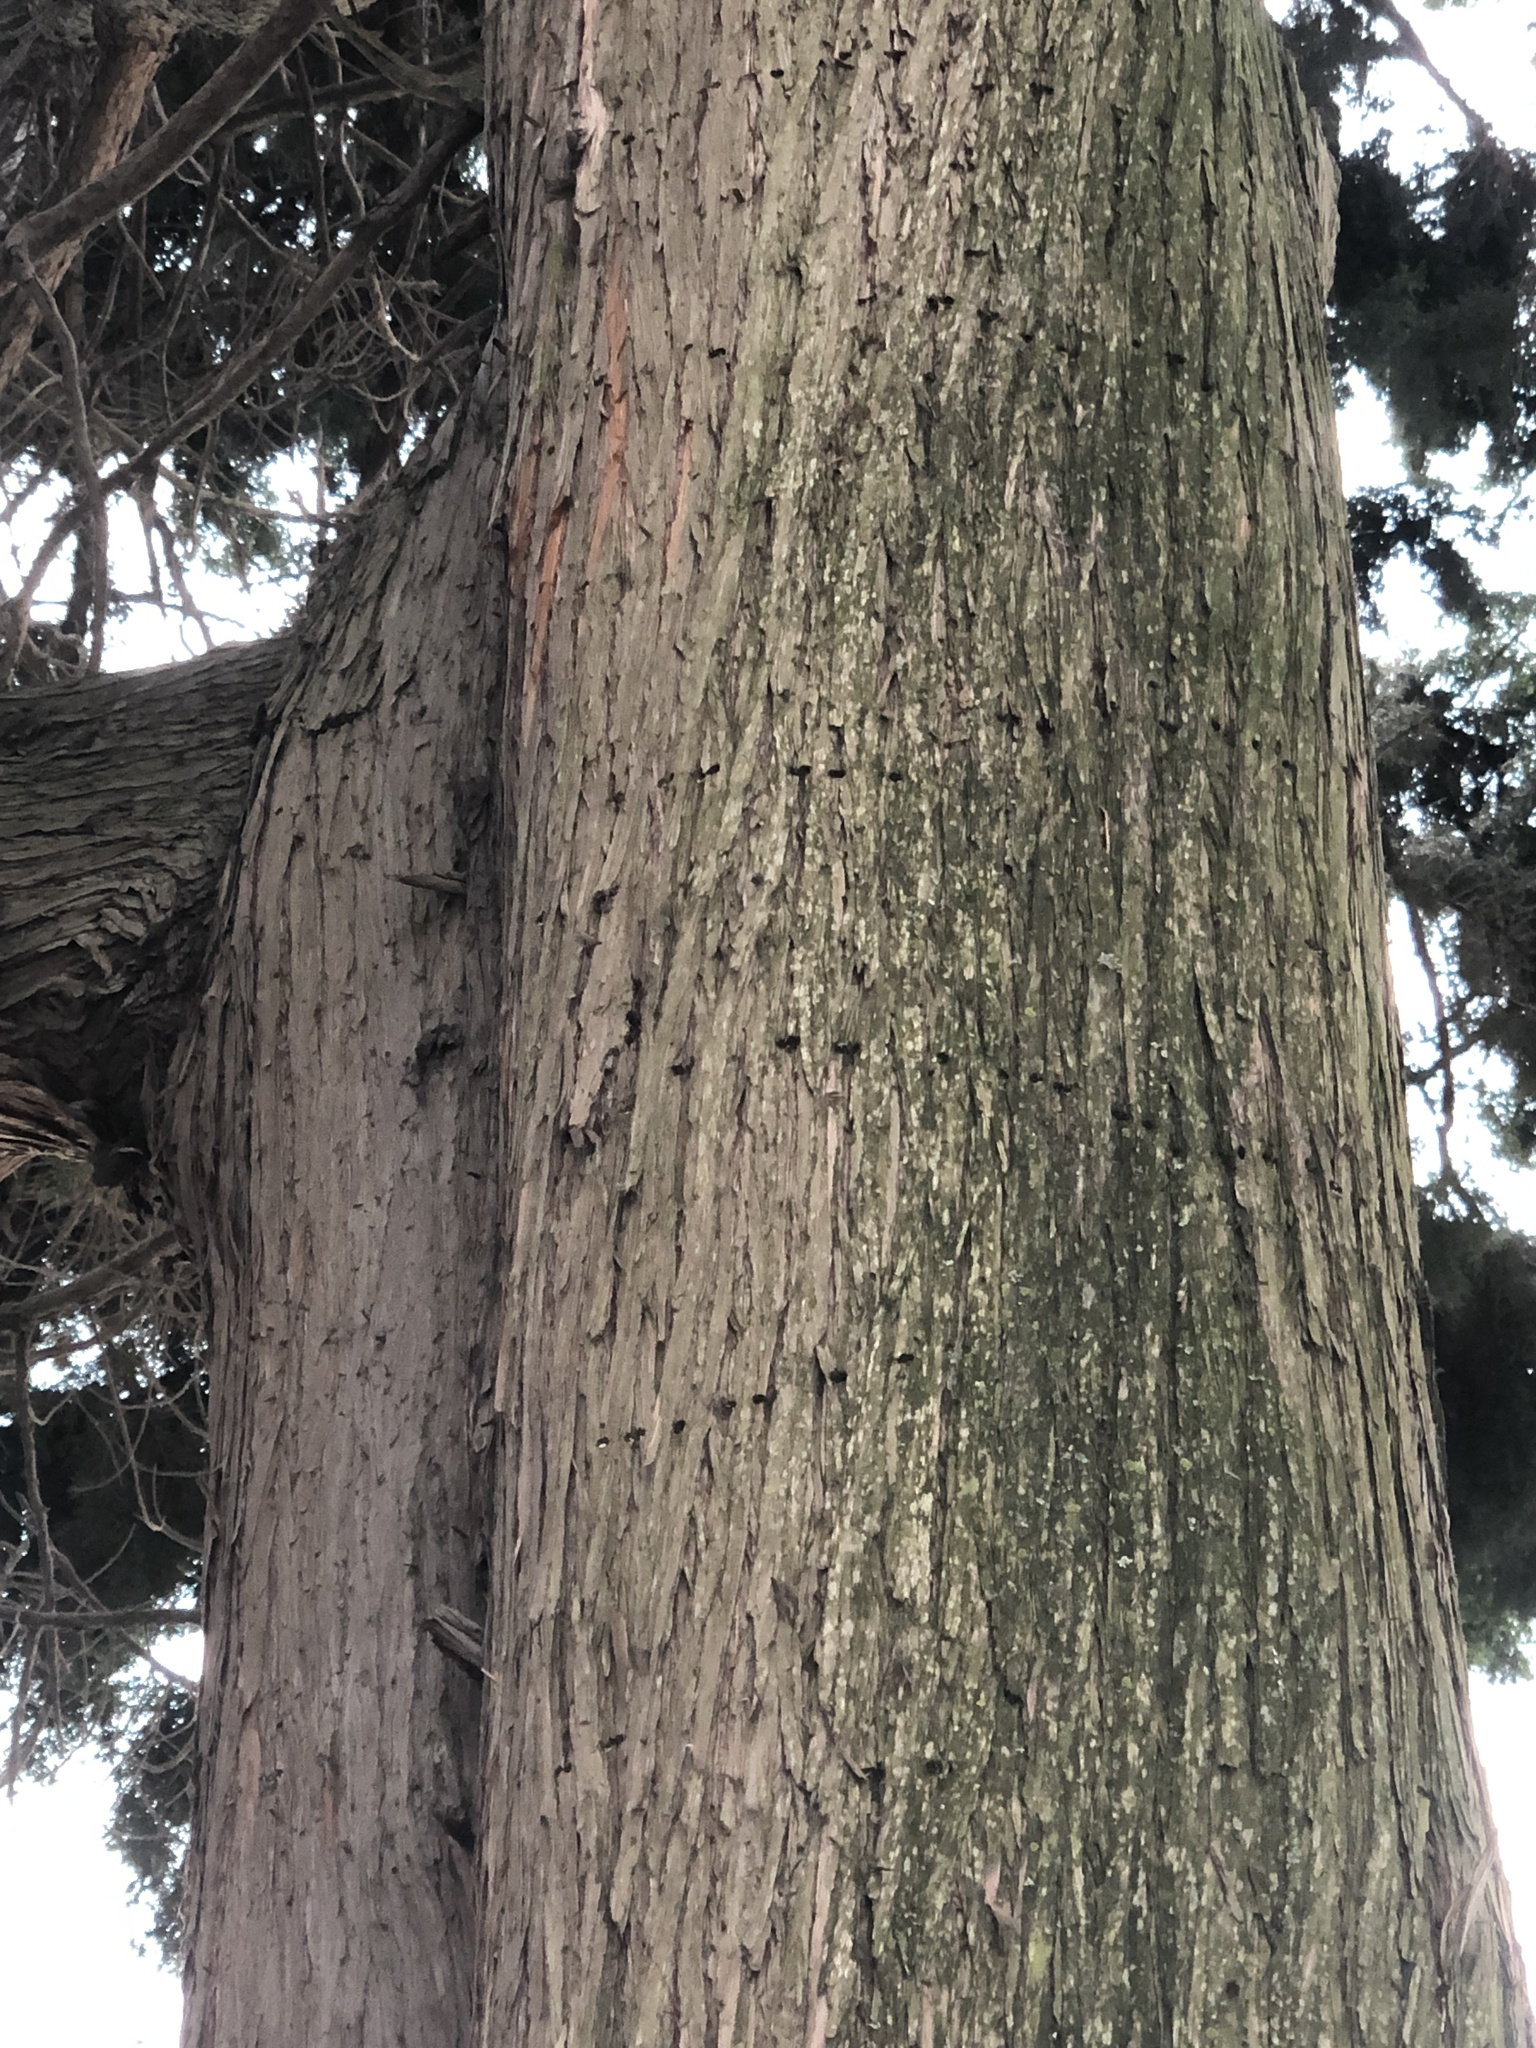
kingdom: Animalia
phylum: Chordata
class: Aves
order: Piciformes
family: Picidae
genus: Sphyrapicus
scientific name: Sphyrapicus ruber
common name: Red-breasted sapsucker
